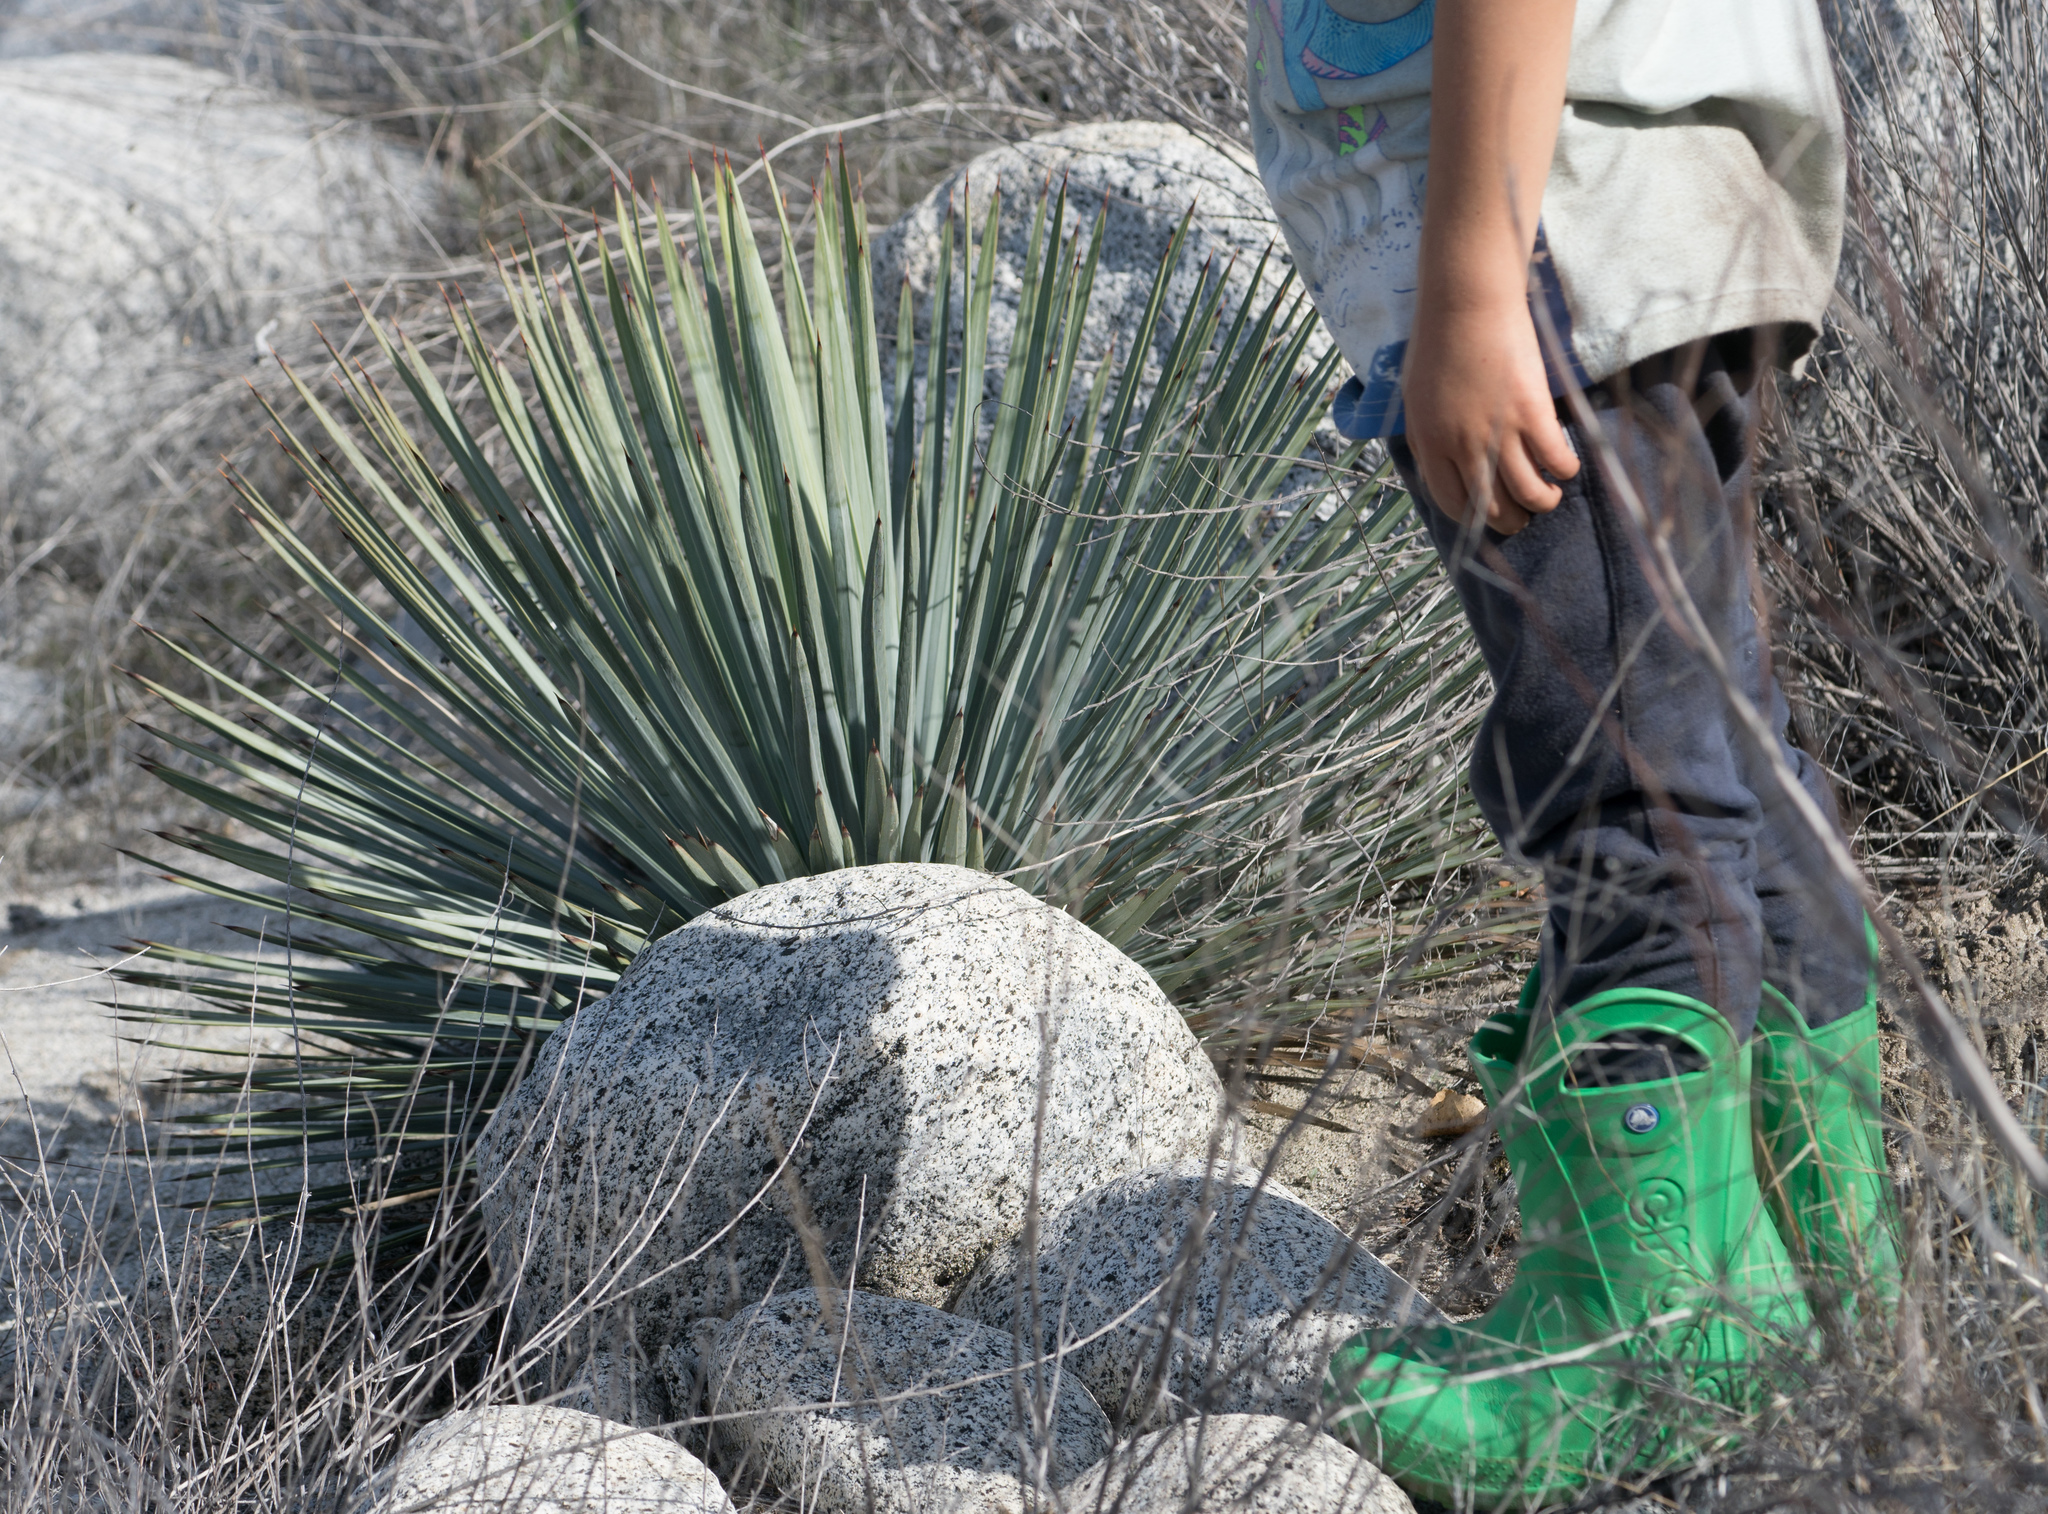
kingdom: Plantae
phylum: Tracheophyta
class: Liliopsida
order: Asparagales
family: Asparagaceae
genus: Hesperoyucca
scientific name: Hesperoyucca whipplei
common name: Our lord's-candle
